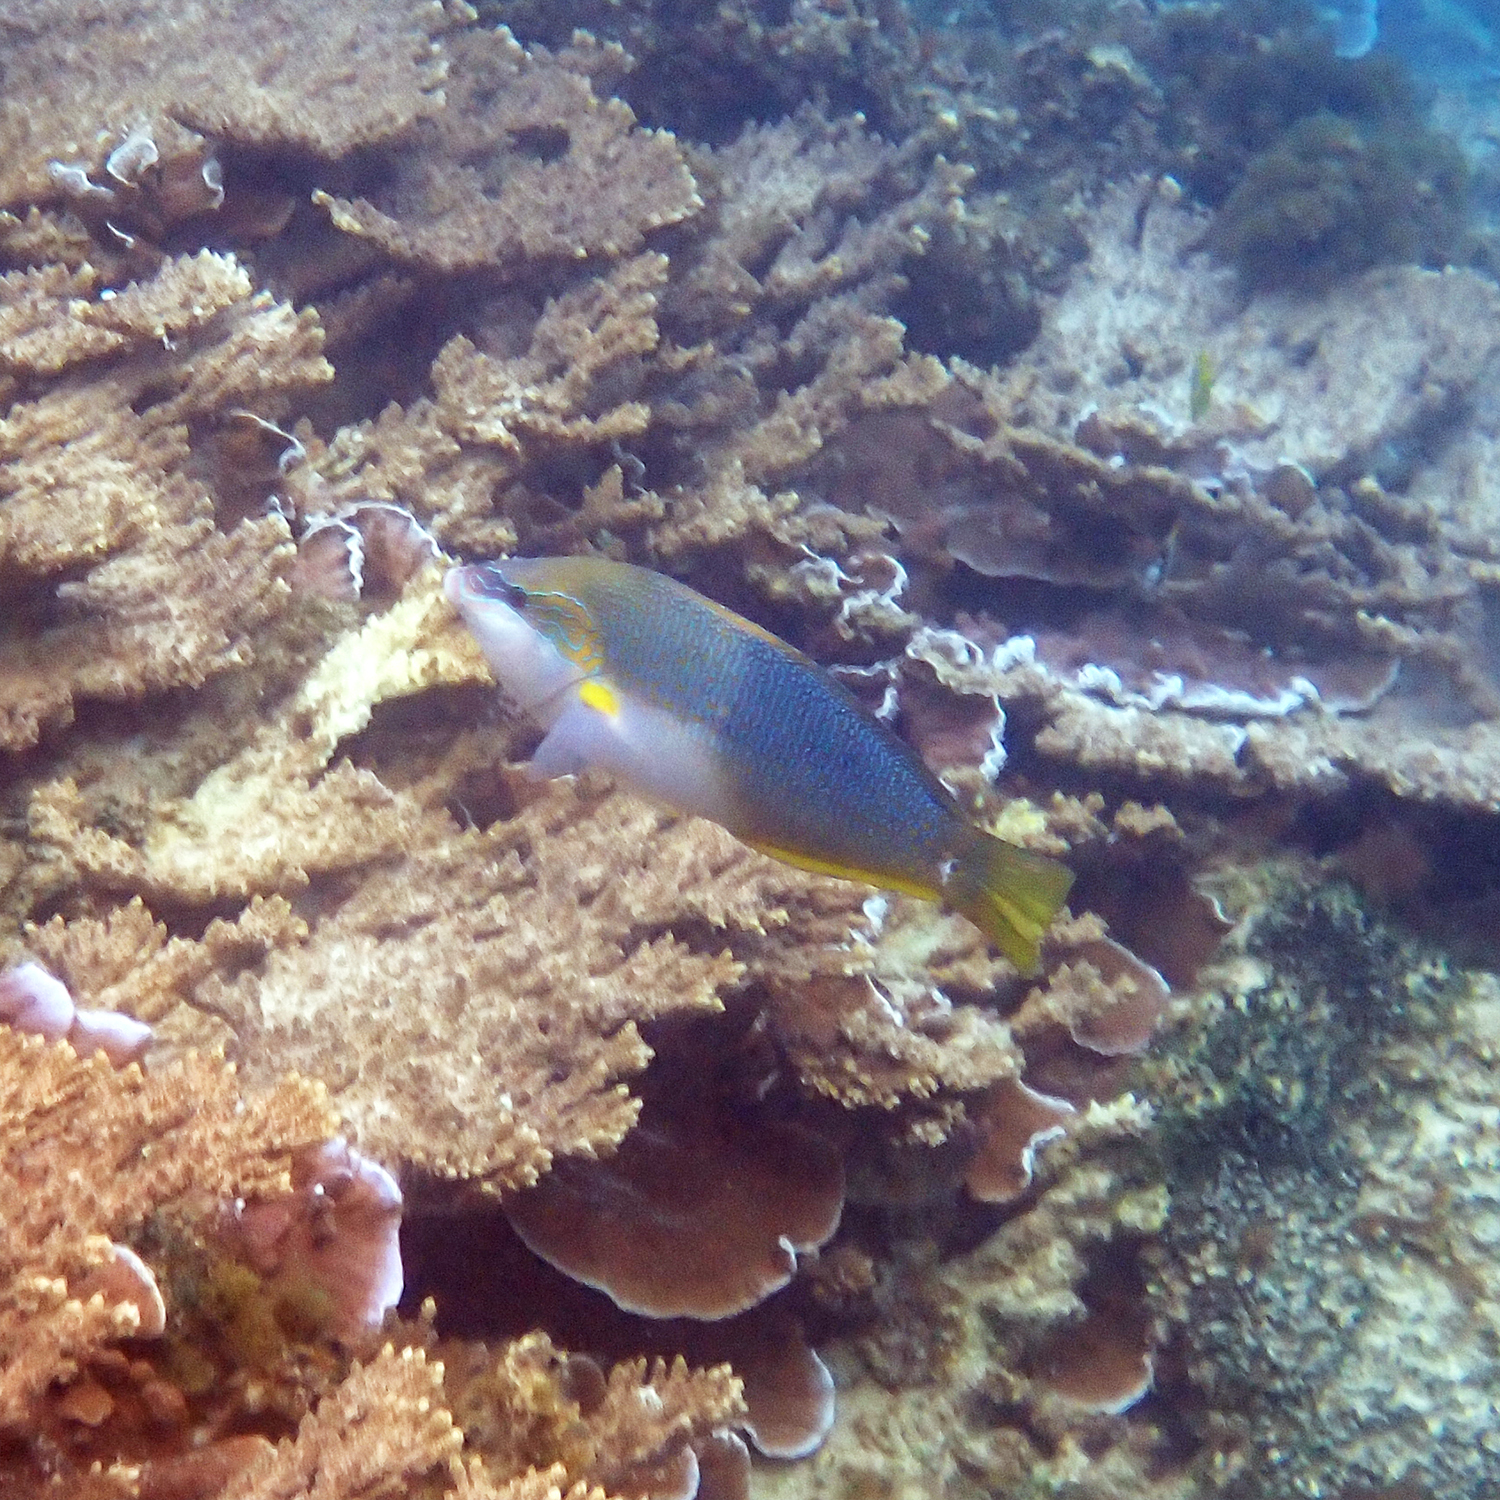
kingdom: Animalia
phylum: Chordata
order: Perciformes
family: Labridae
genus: Anampses
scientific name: Anampses elegans
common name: Elegant wrasse
